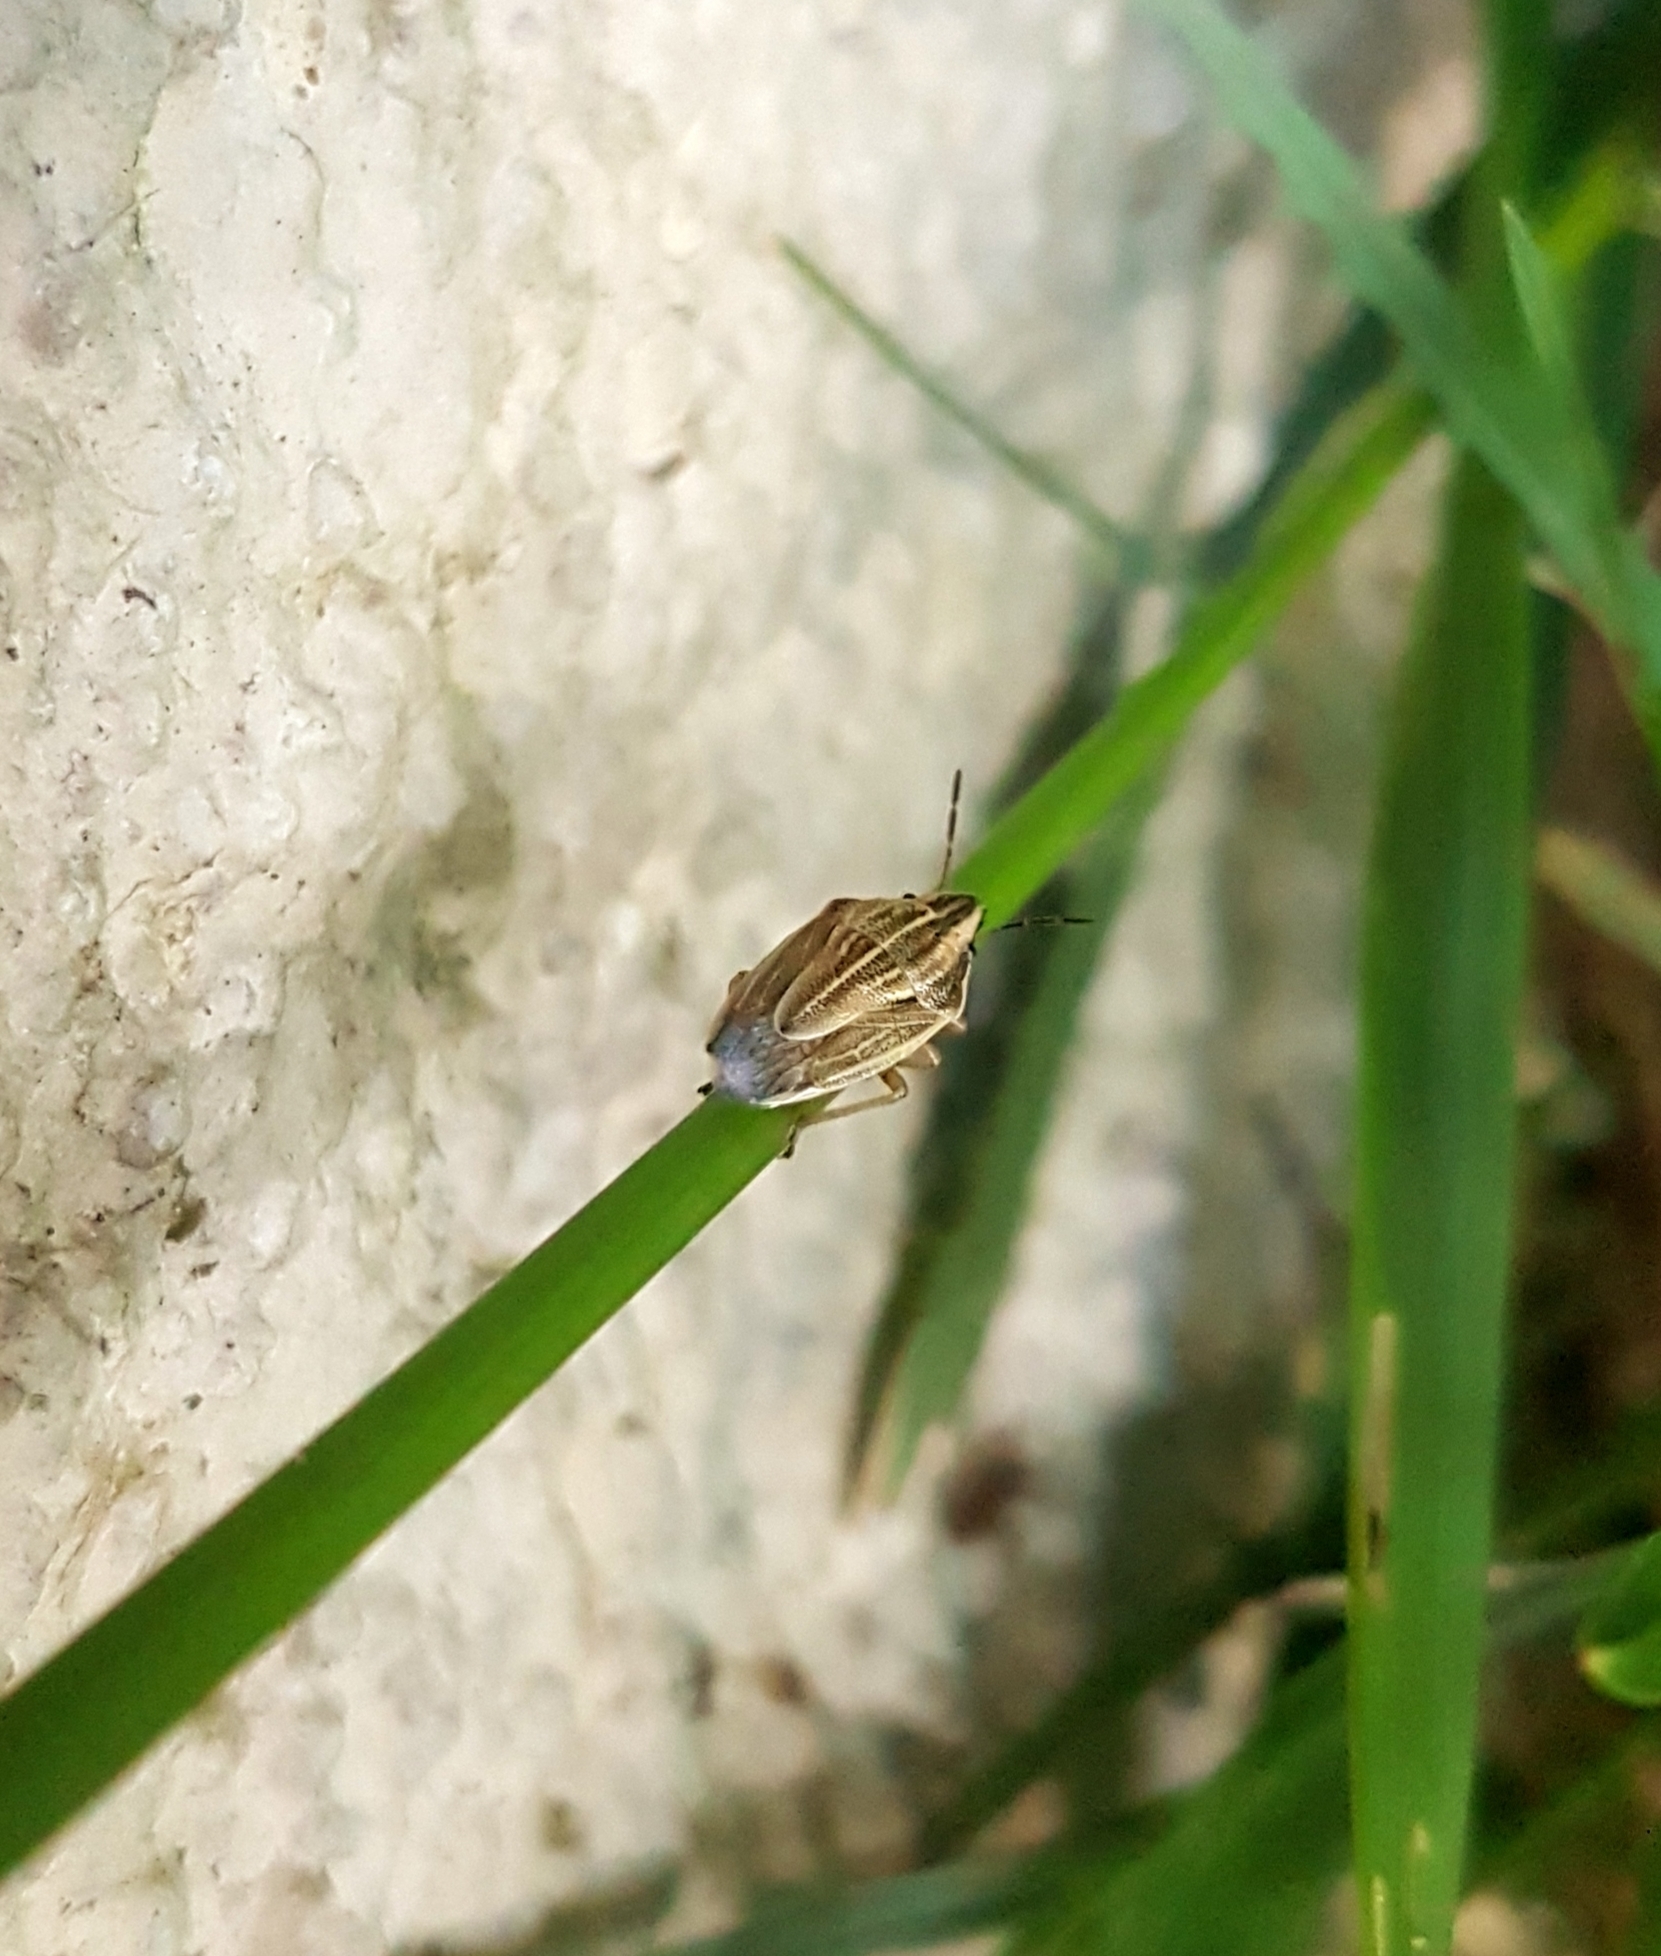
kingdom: Animalia
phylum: Arthropoda
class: Insecta
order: Hemiptera
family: Pentatomidae
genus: Aelia
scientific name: Aelia acuminata
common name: Bishop's mitre
